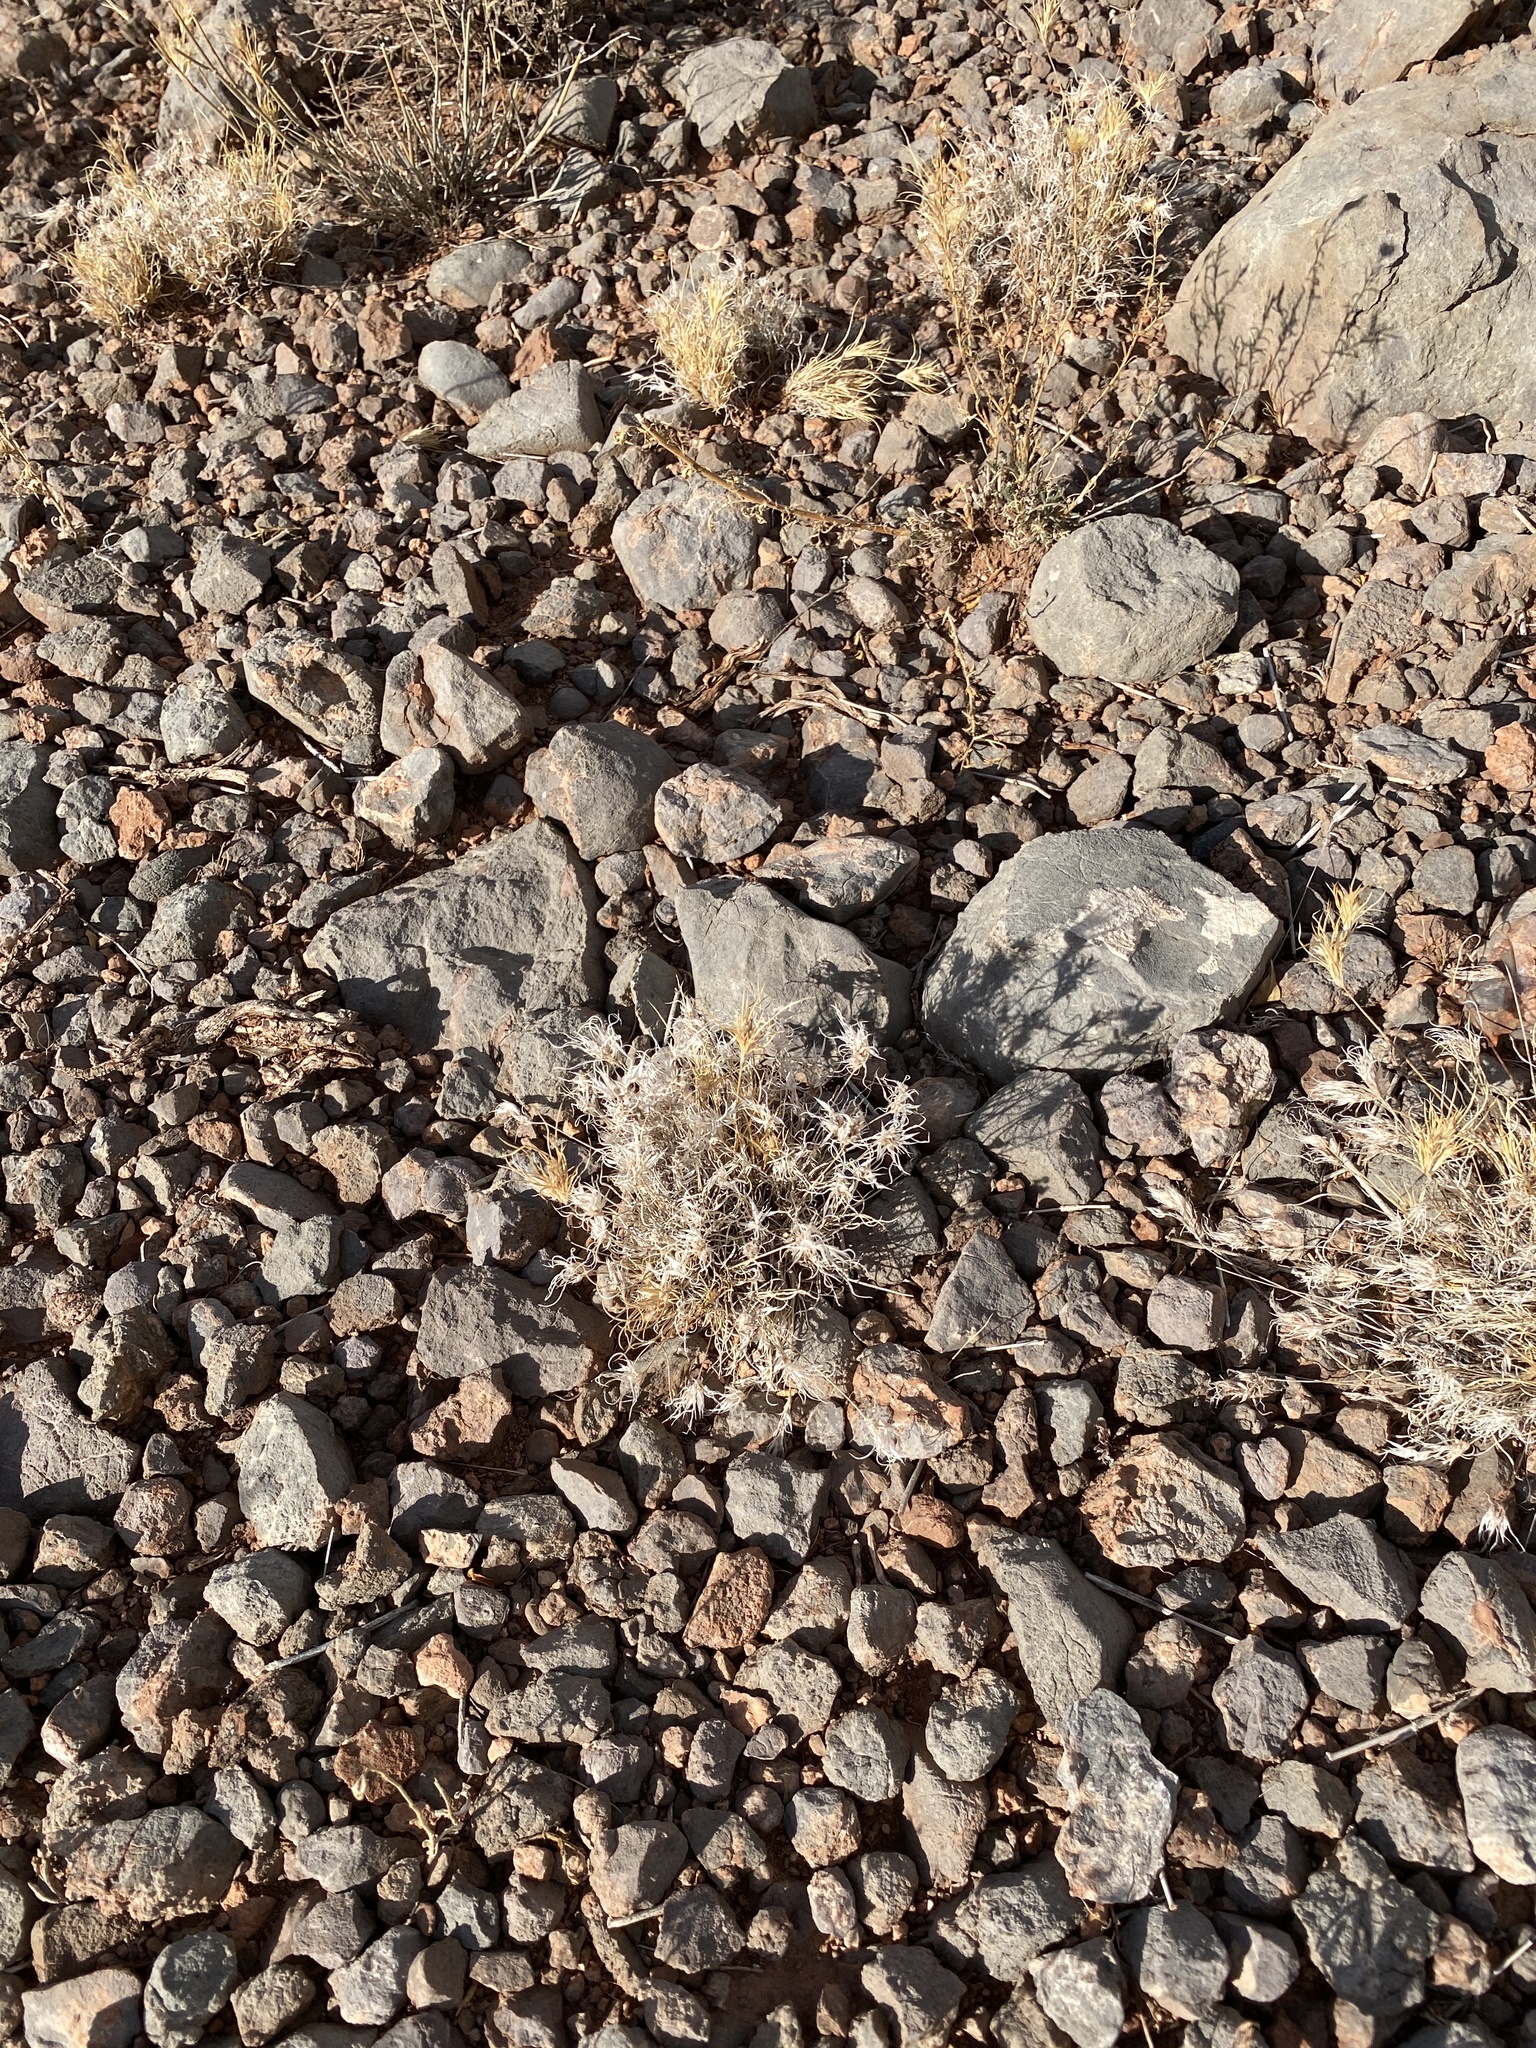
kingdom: Plantae
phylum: Tracheophyta
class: Liliopsida
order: Poales
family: Poaceae
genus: Dasyochloa
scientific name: Dasyochloa pulchella
